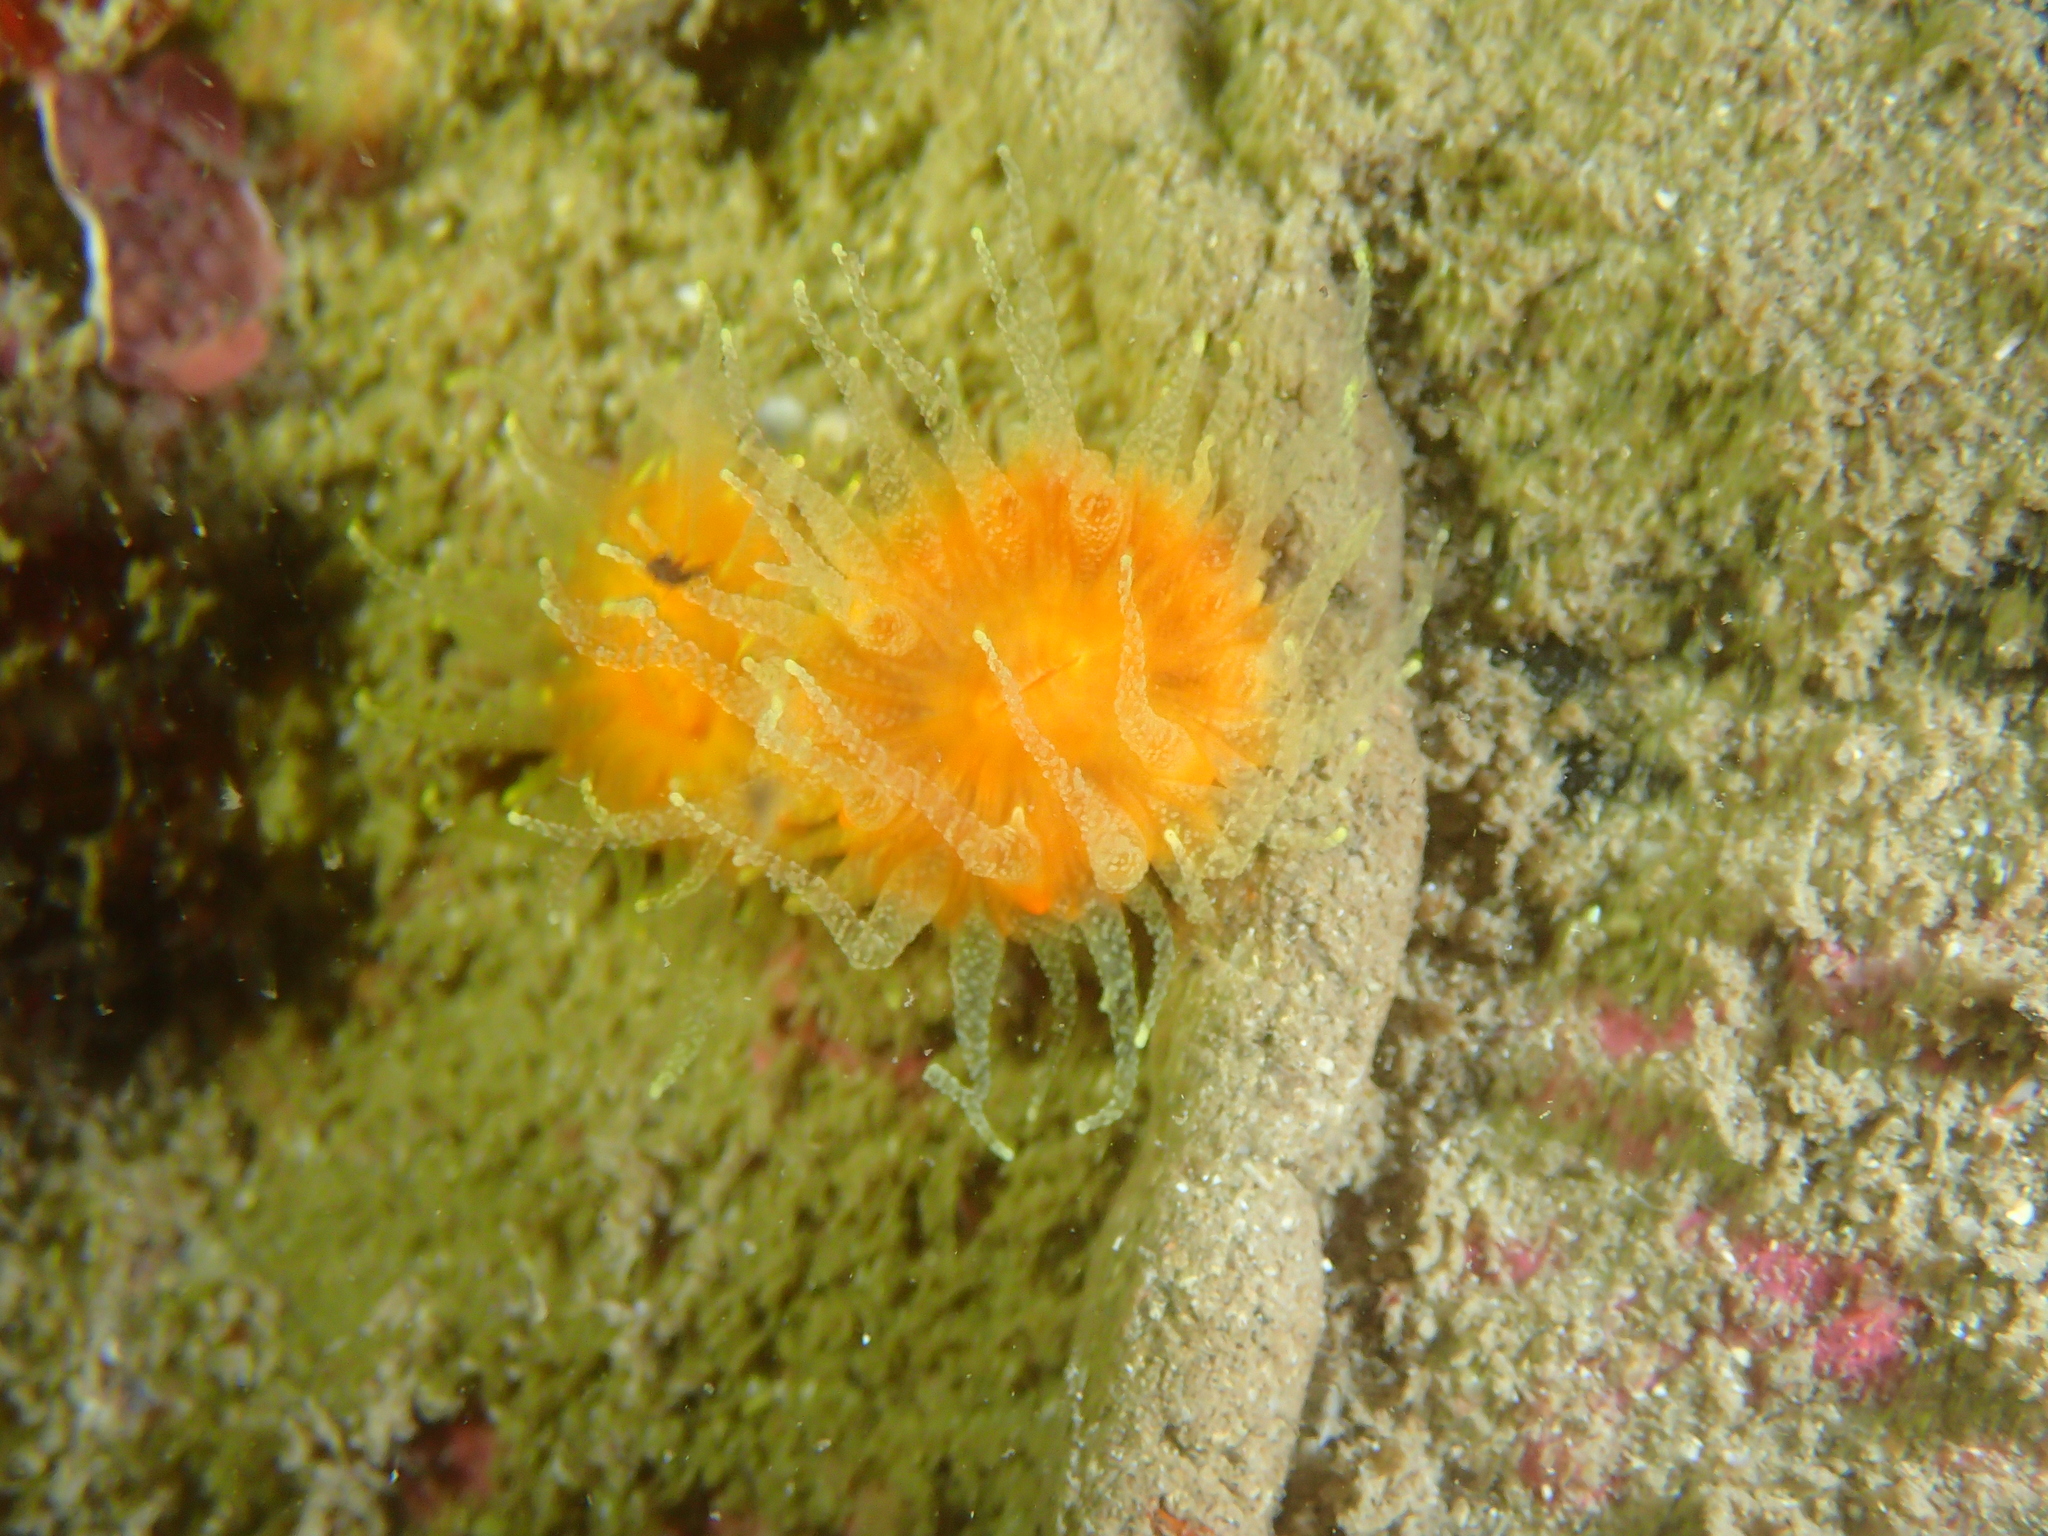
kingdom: Animalia
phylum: Cnidaria
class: Anthozoa
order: Scleractinia
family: Dendrophylliidae
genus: Balanophyllia
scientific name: Balanophyllia regia
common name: Golden star coral
